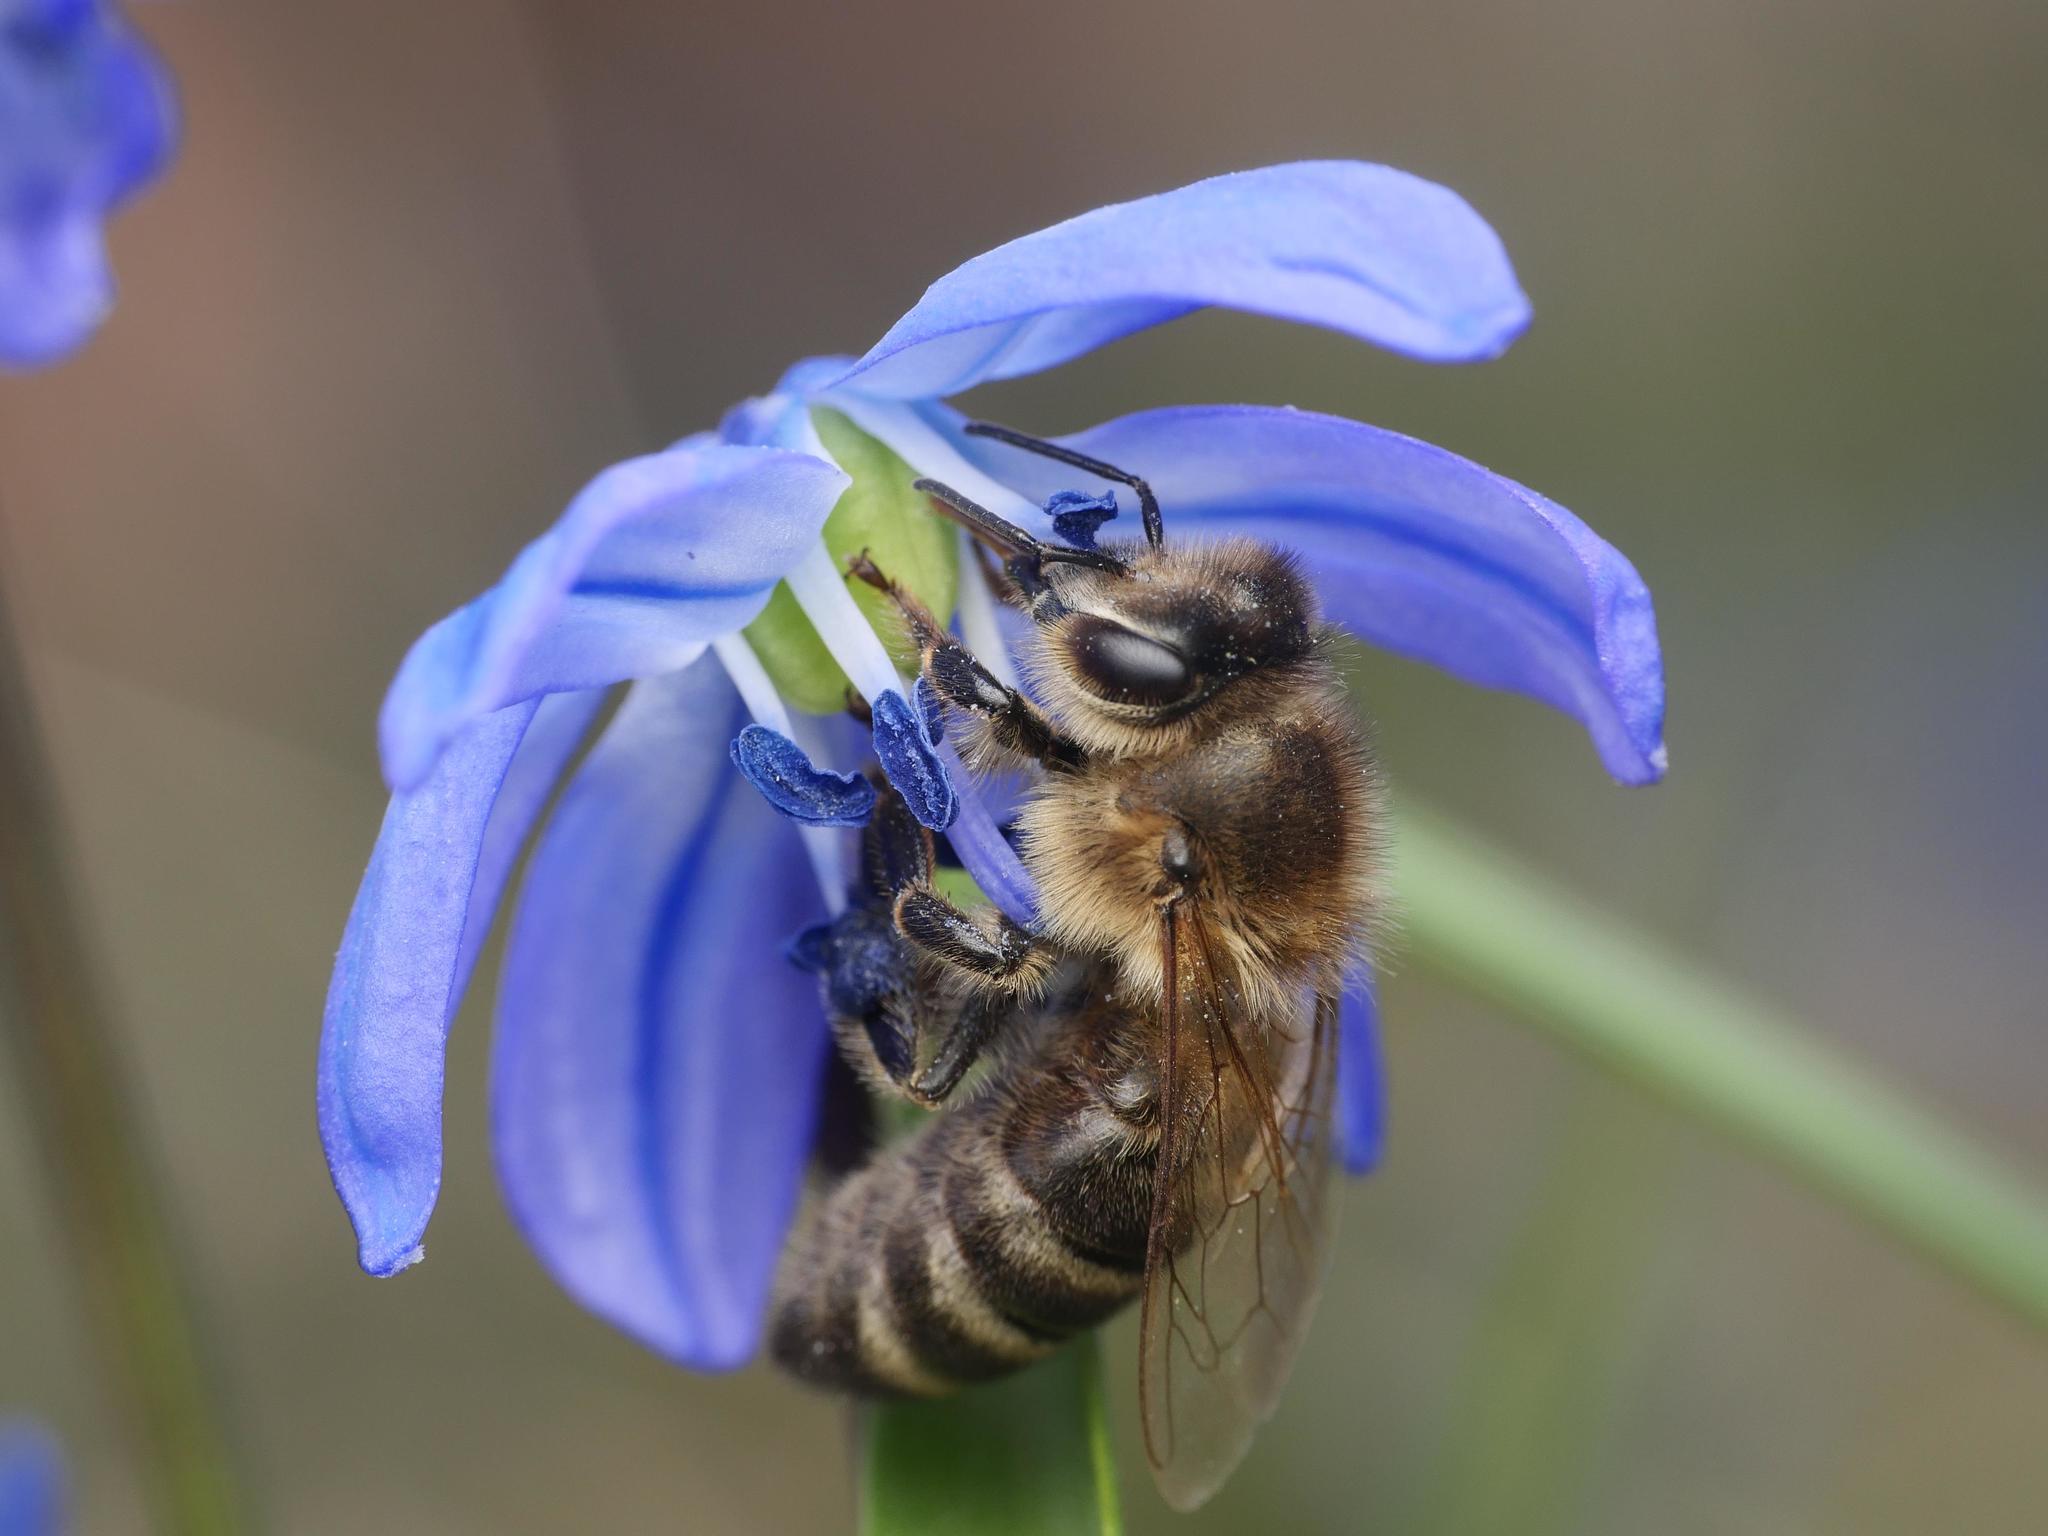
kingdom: Animalia
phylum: Arthropoda
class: Insecta
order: Hymenoptera
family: Apidae
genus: Apis
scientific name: Apis mellifera
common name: Honey bee
